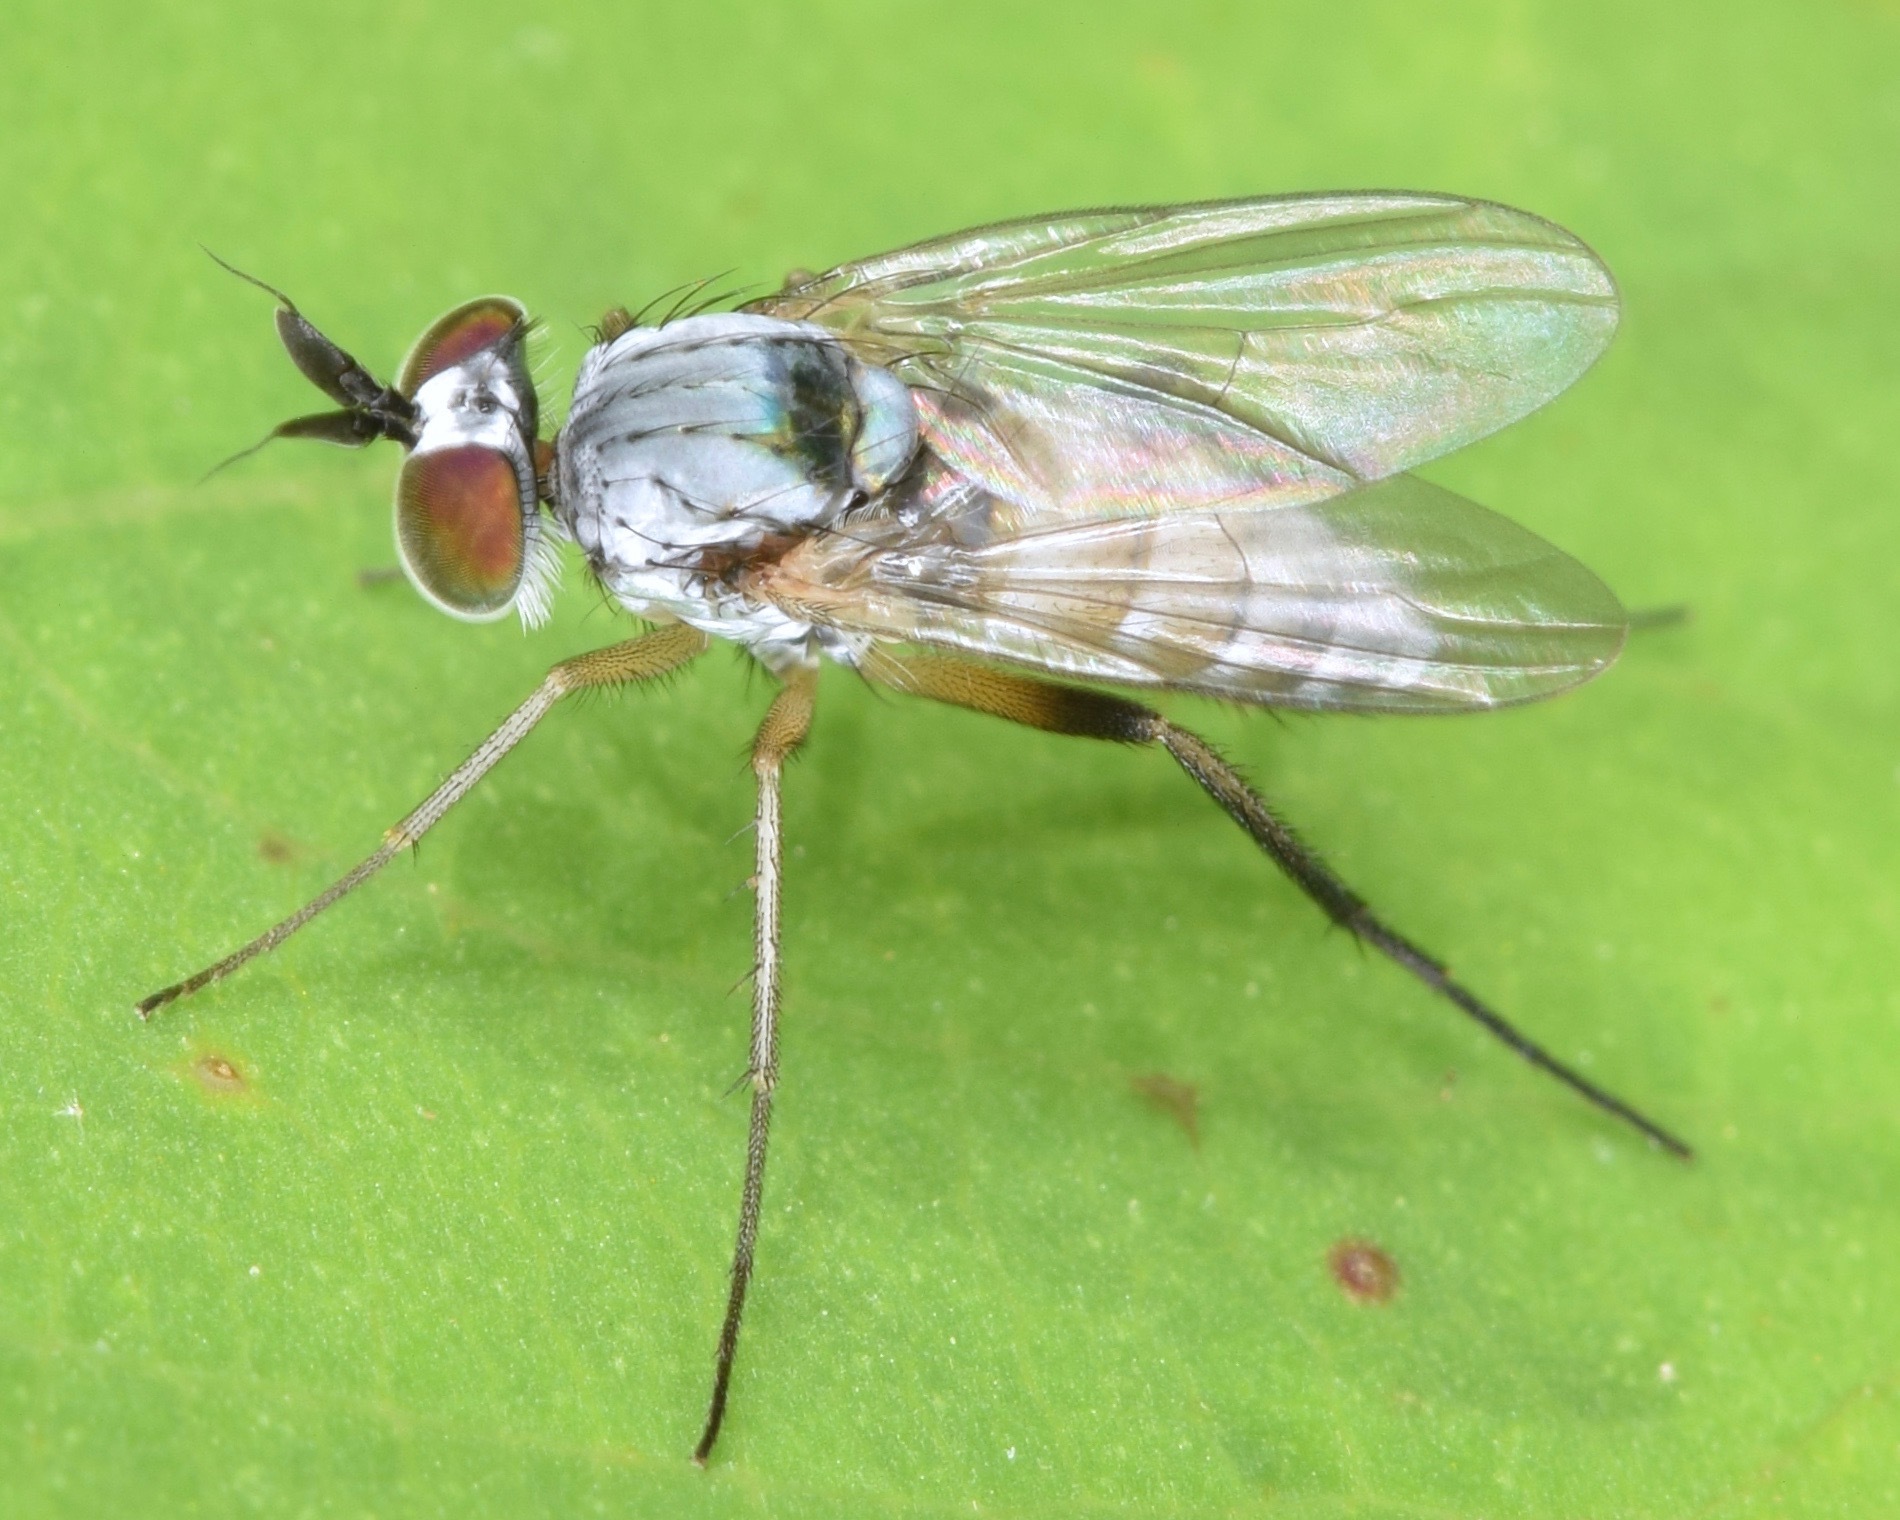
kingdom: Animalia
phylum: Arthropoda
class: Insecta
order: Diptera
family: Dolichopodidae
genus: Argyra
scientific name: Argyra thoracia
